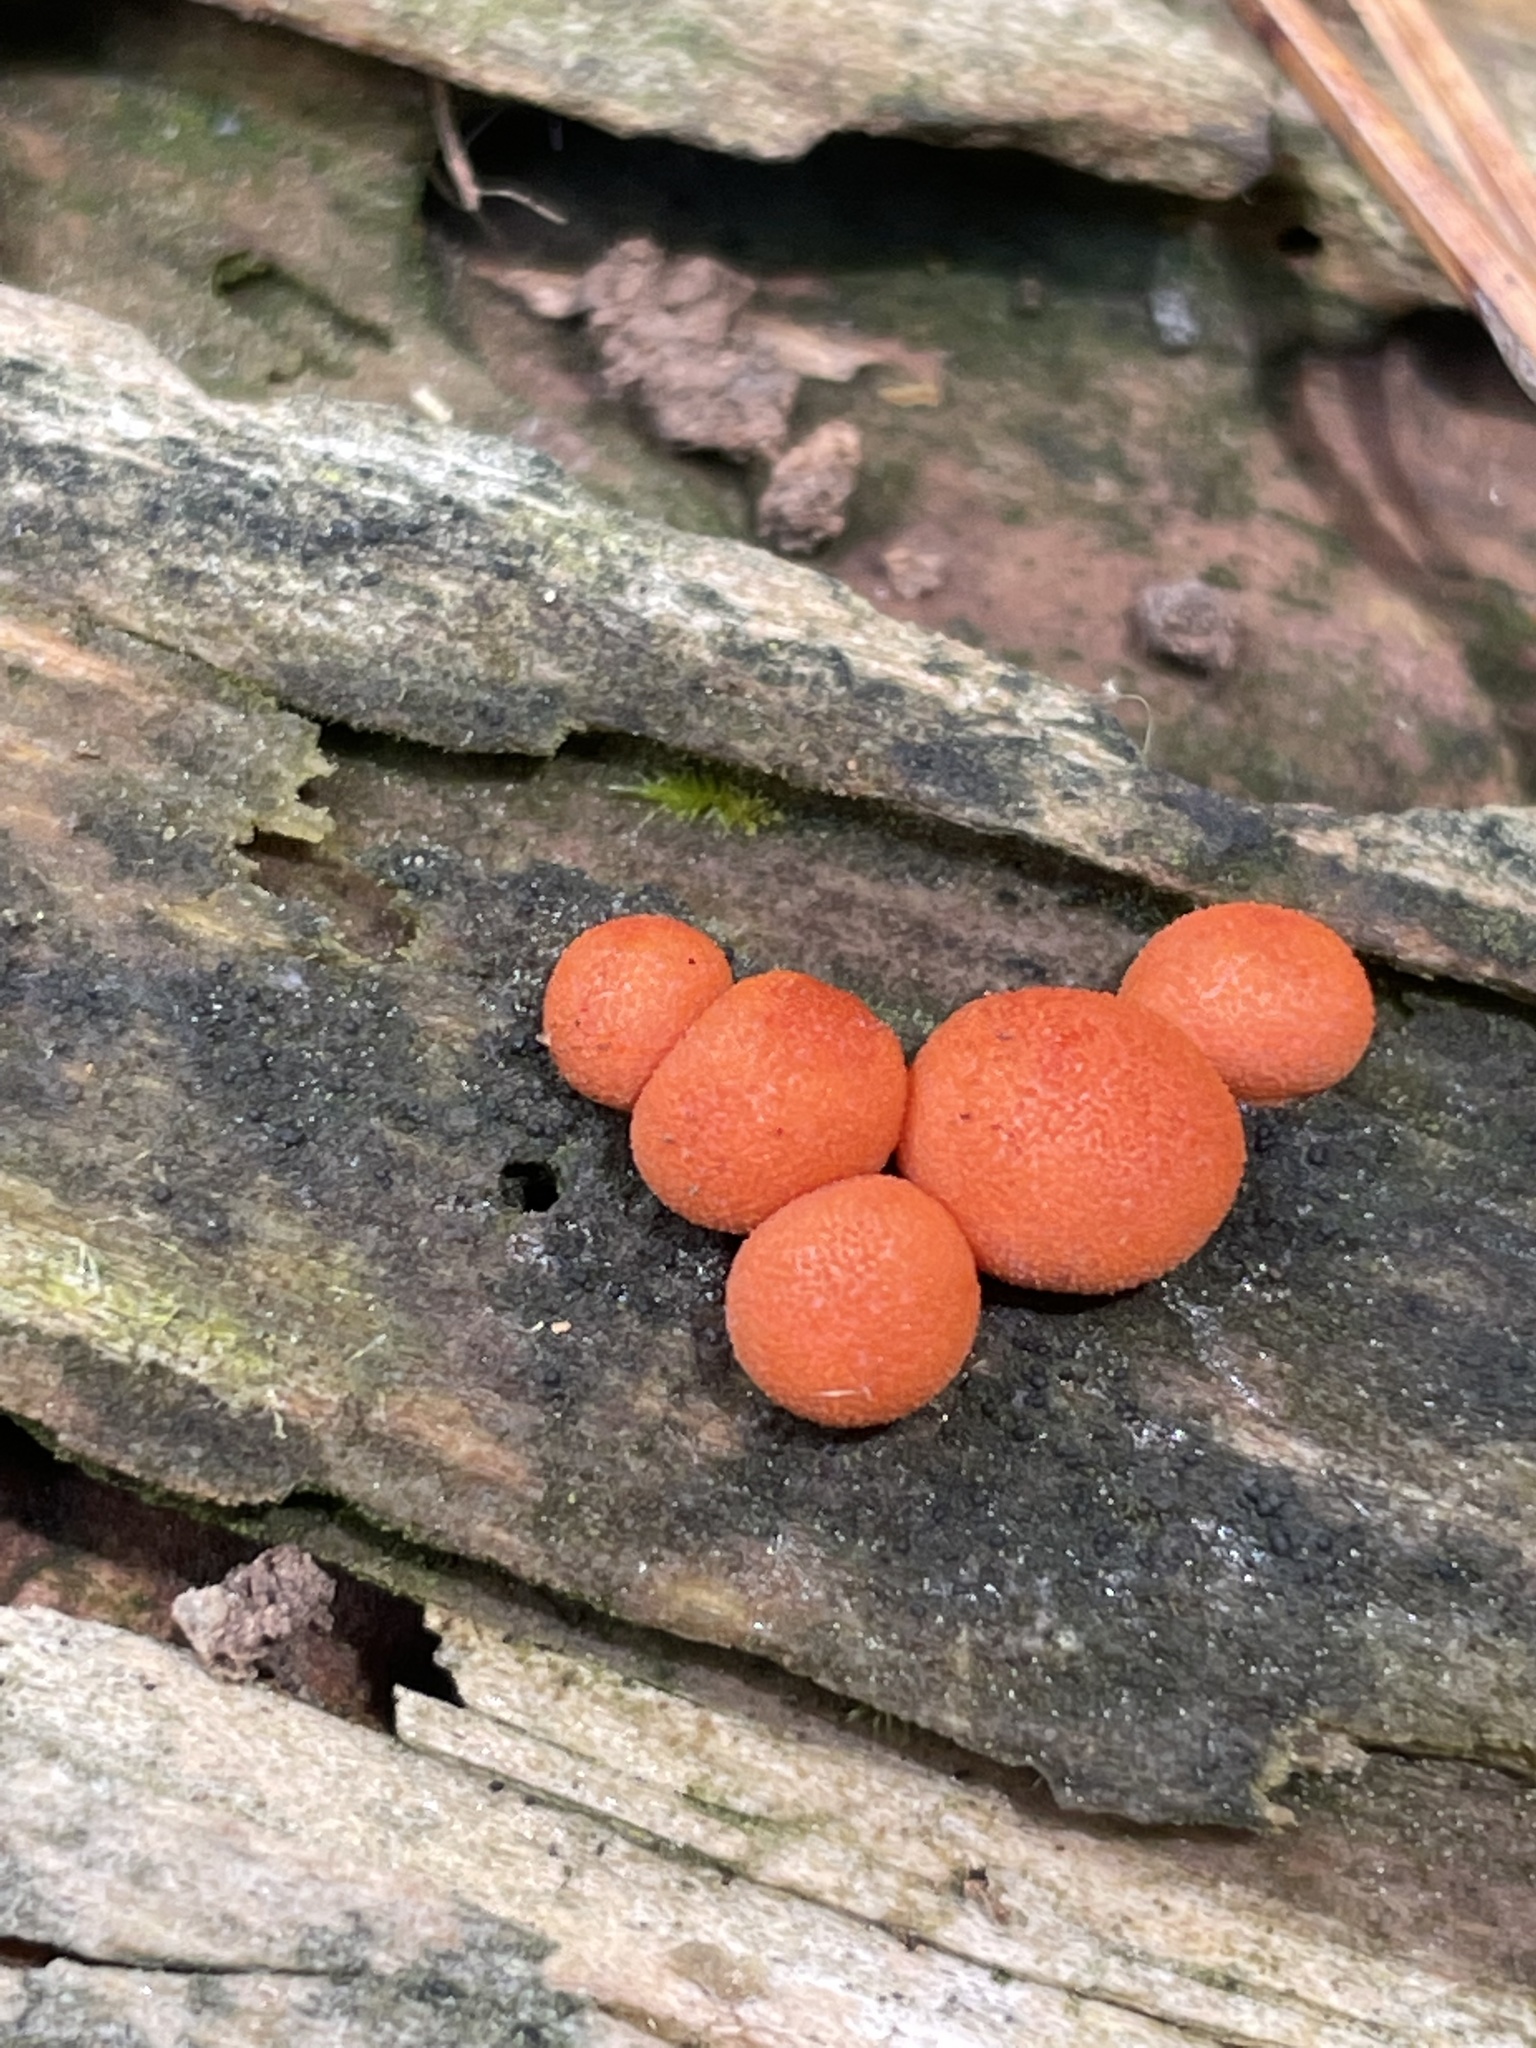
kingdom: Protozoa
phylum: Mycetozoa
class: Myxomycetes
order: Cribrariales
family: Tubiferaceae
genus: Lycogala
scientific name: Lycogala epidendrum
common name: Wolf's milk
